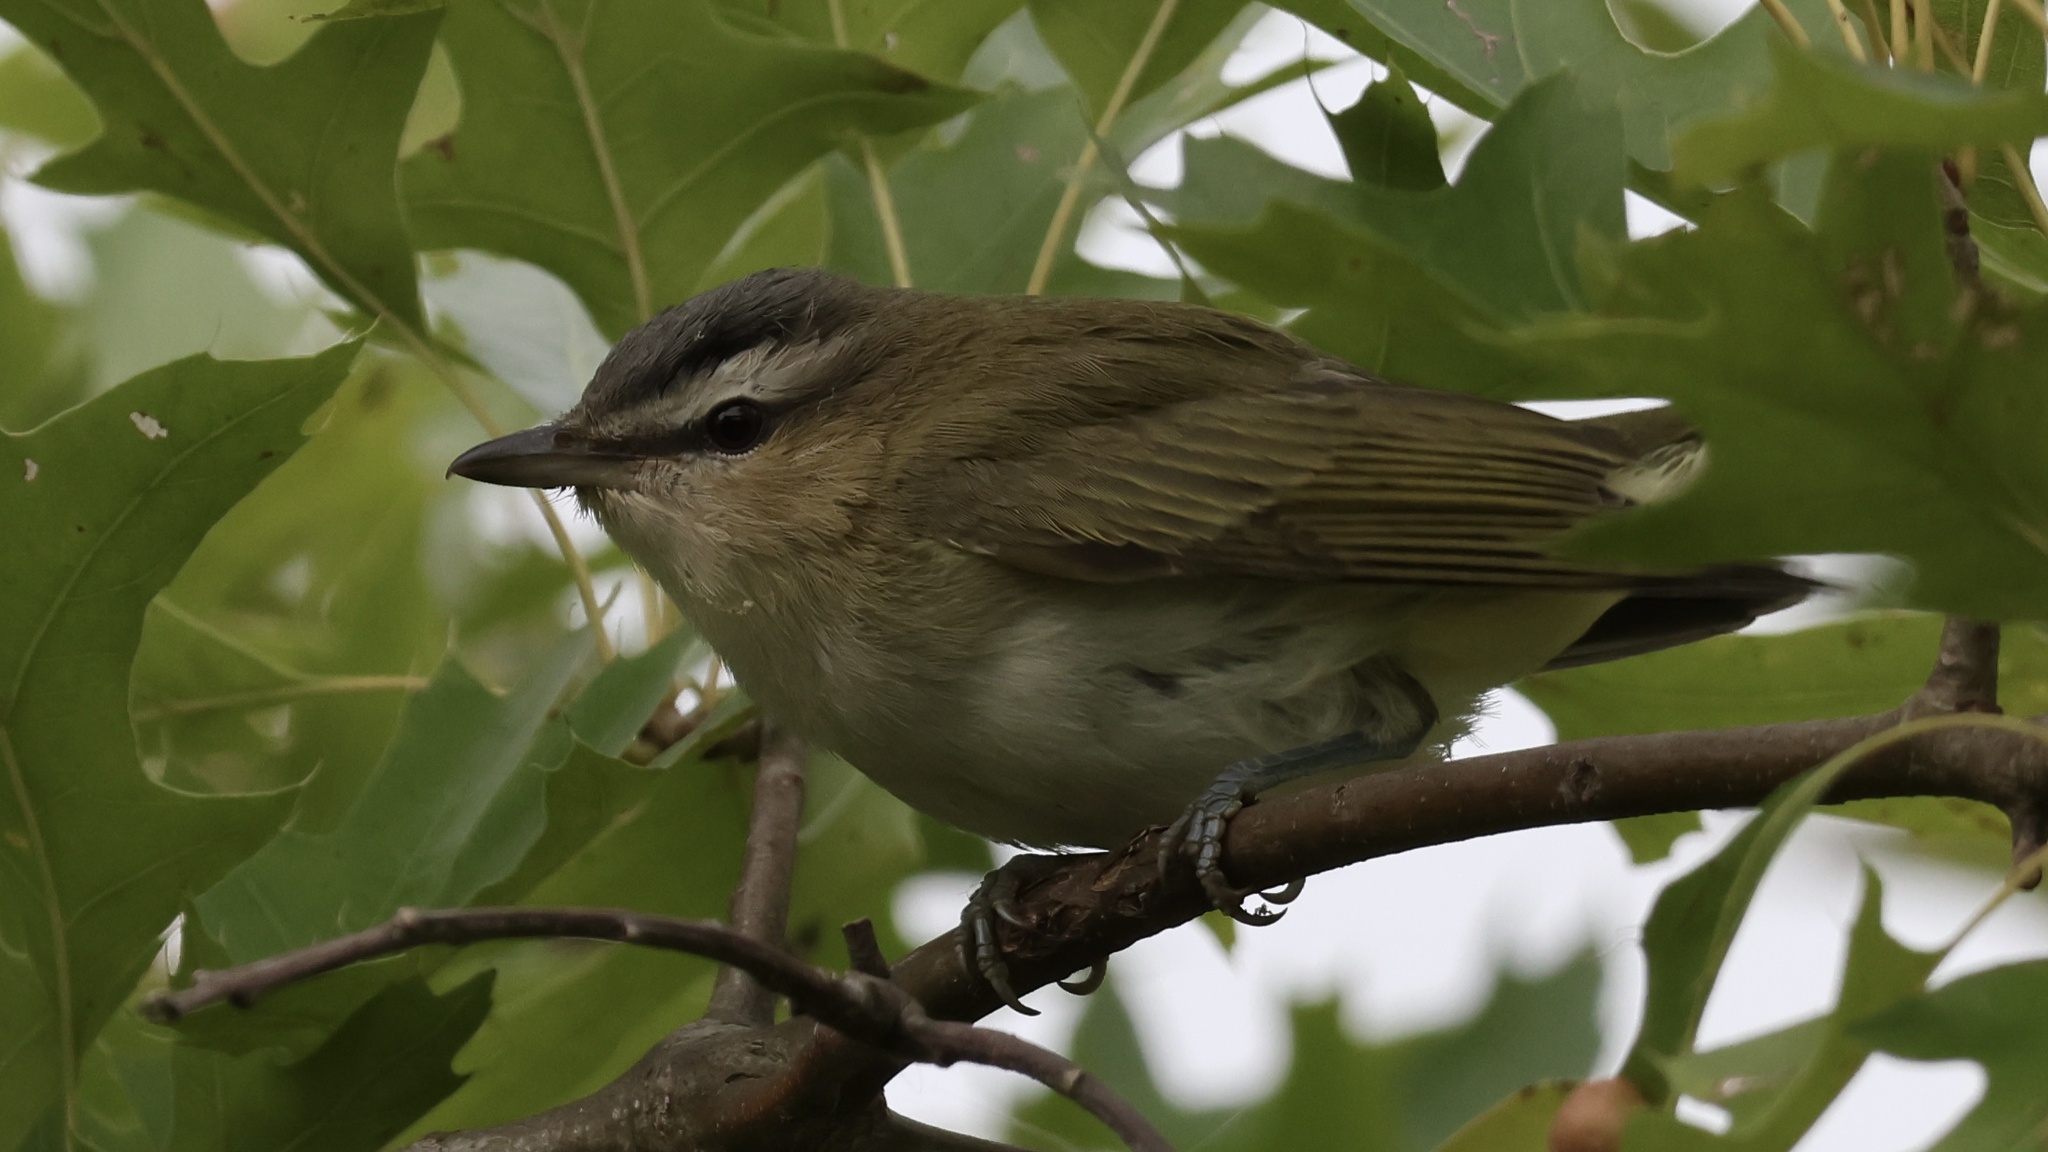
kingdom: Animalia
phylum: Chordata
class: Aves
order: Passeriformes
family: Vireonidae
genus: Vireo
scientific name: Vireo olivaceus
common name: Red-eyed vireo
